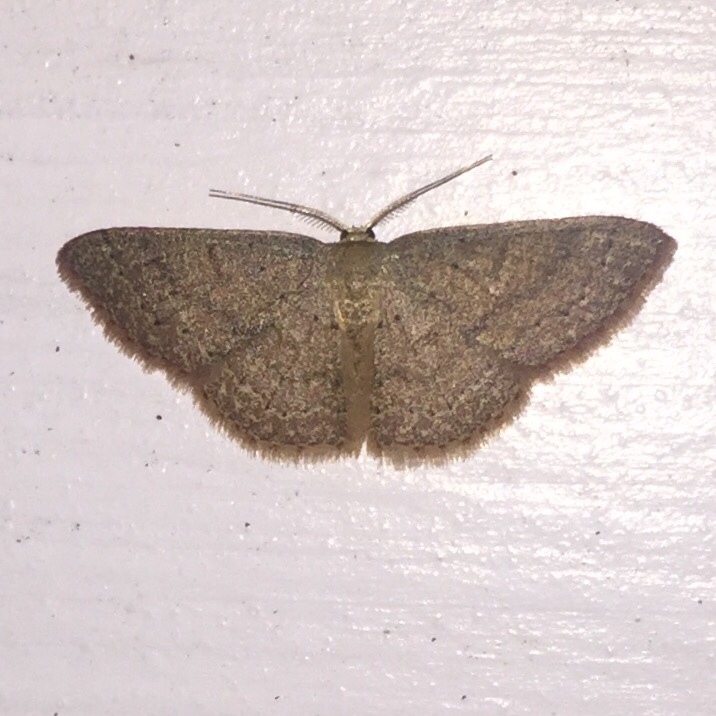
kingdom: Animalia
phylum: Arthropoda
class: Insecta
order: Lepidoptera
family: Geometridae
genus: Pleuroprucha
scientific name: Pleuroprucha insulsaria
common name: Common tan wave
